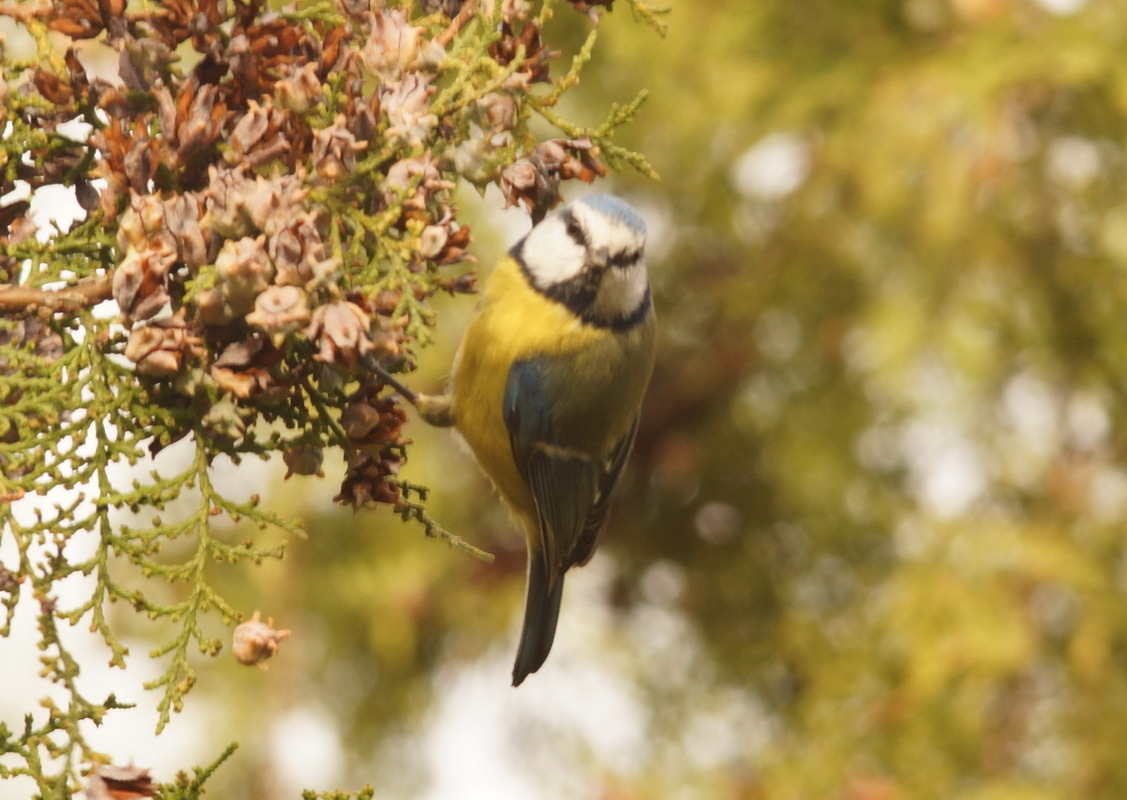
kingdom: Animalia
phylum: Chordata
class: Aves
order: Passeriformes
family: Paridae
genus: Cyanistes
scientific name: Cyanistes caeruleus
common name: Eurasian blue tit
